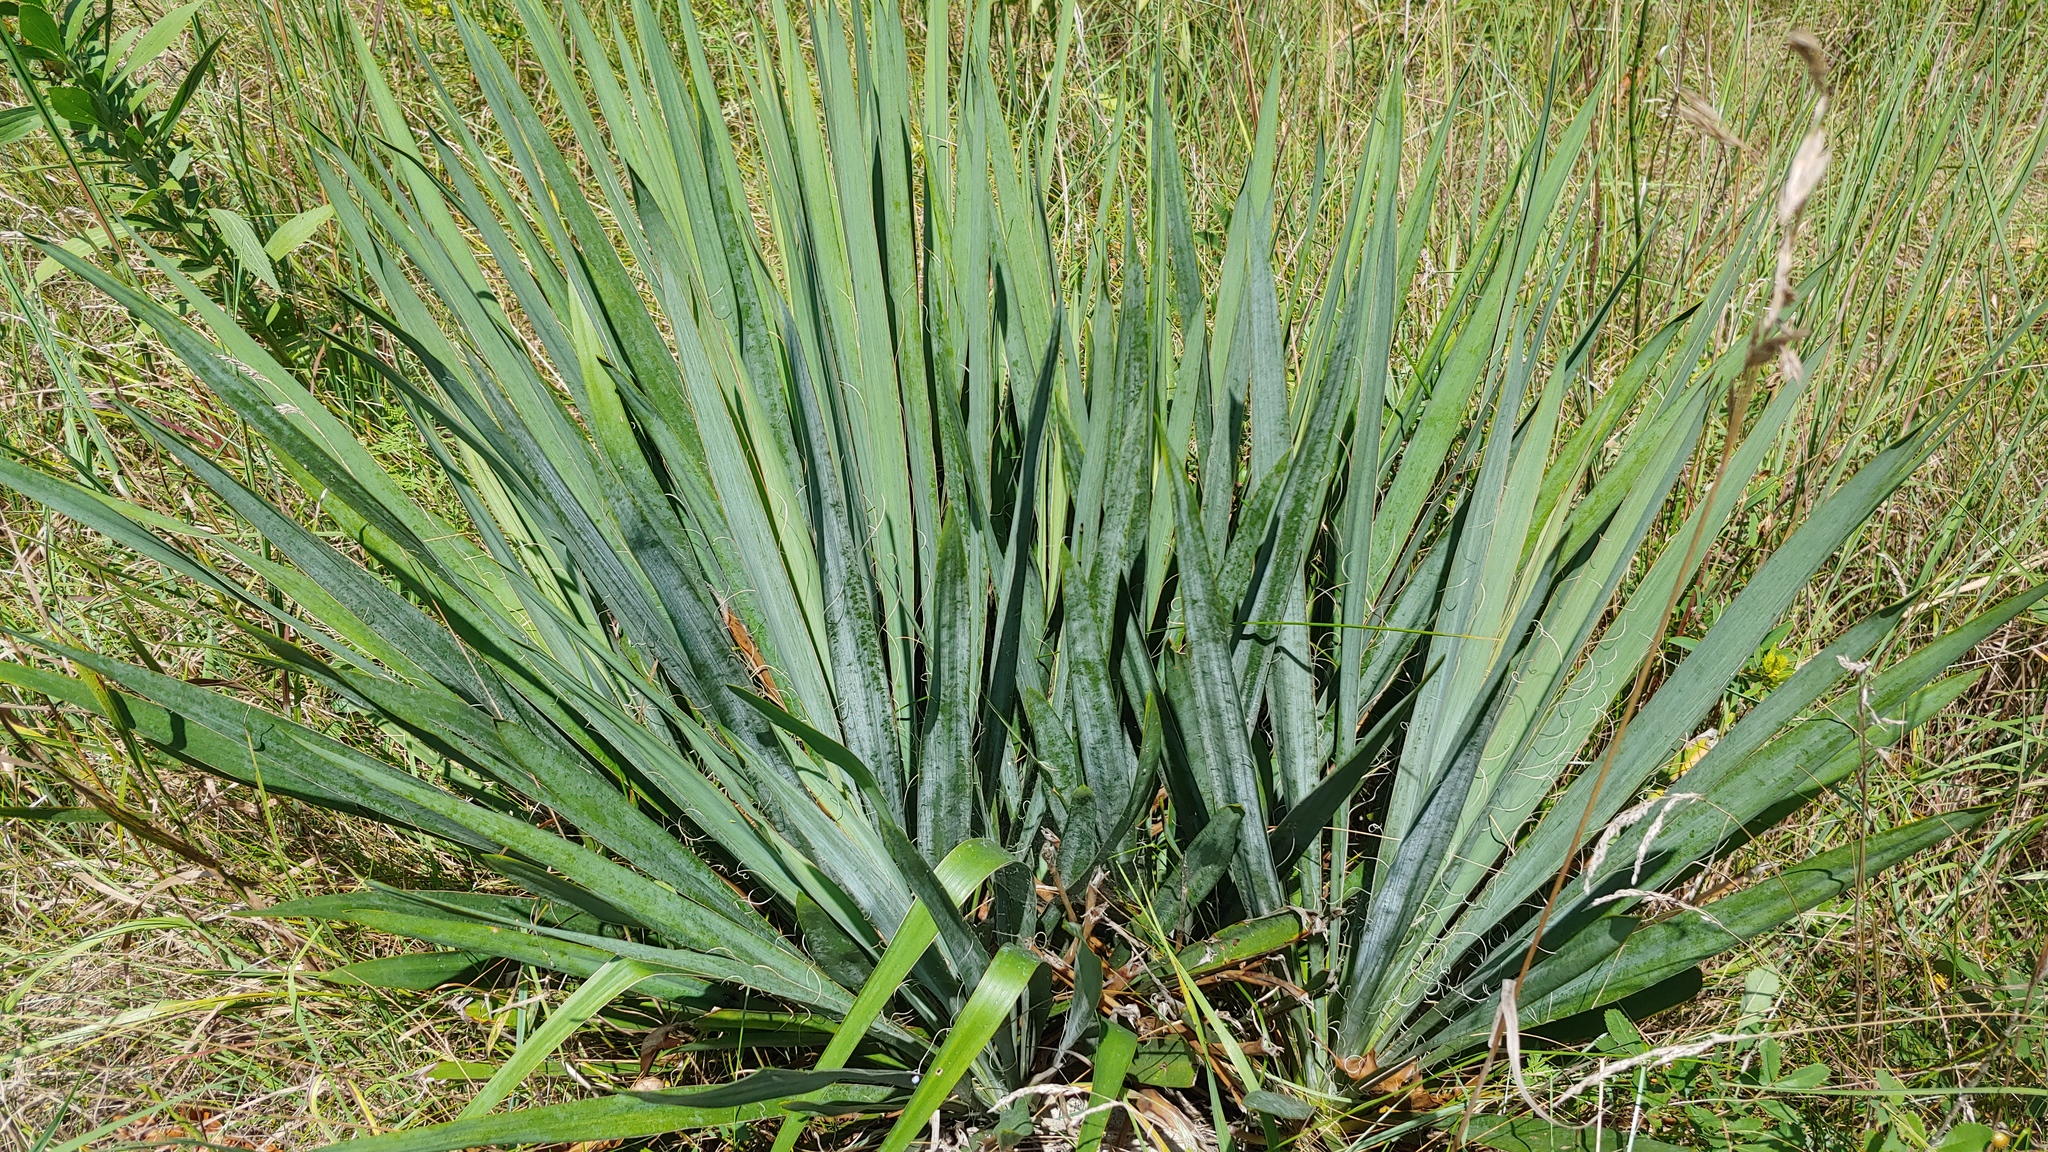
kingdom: Plantae
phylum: Tracheophyta
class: Liliopsida
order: Asparagales
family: Asparagaceae
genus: Yucca
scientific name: Yucca flaccida
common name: Adam's-needle
